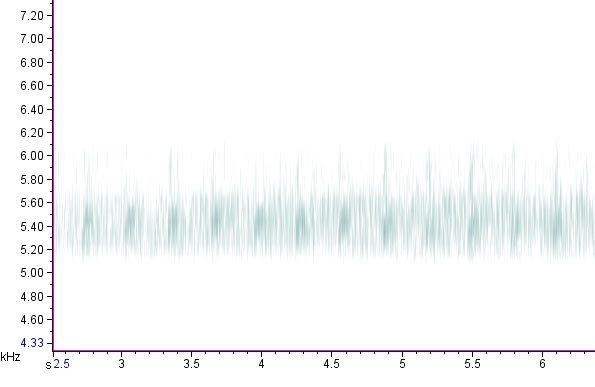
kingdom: Animalia
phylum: Arthropoda
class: Insecta
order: Orthoptera
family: Trigonidiidae
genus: Cyrtoxipha
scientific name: Cyrtoxipha columbiana
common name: Columbian trig
